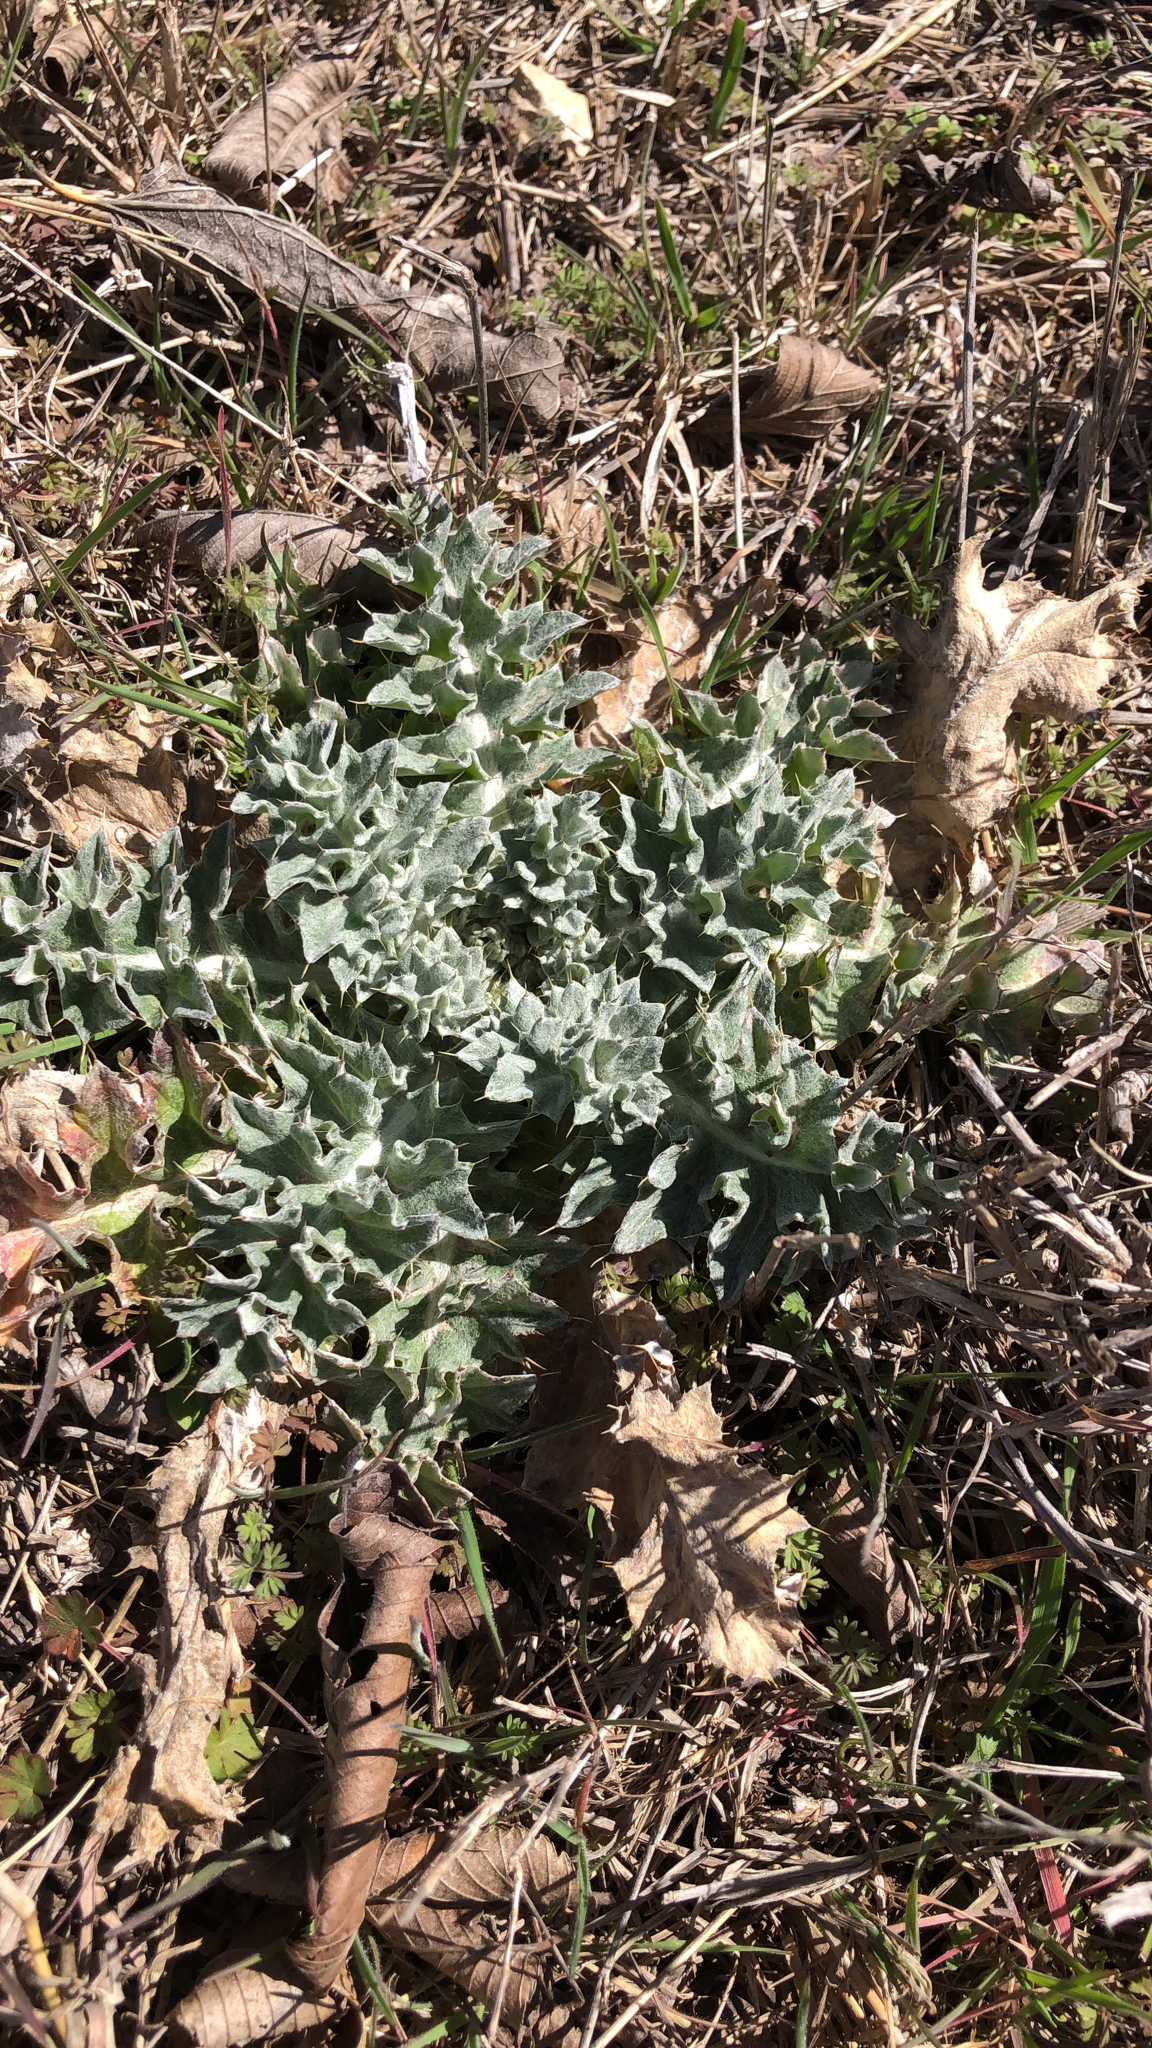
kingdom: Plantae
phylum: Tracheophyta
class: Magnoliopsida
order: Asterales
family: Asteraceae
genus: Cirsium
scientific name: Cirsium undulatum
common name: Pasture thistle
